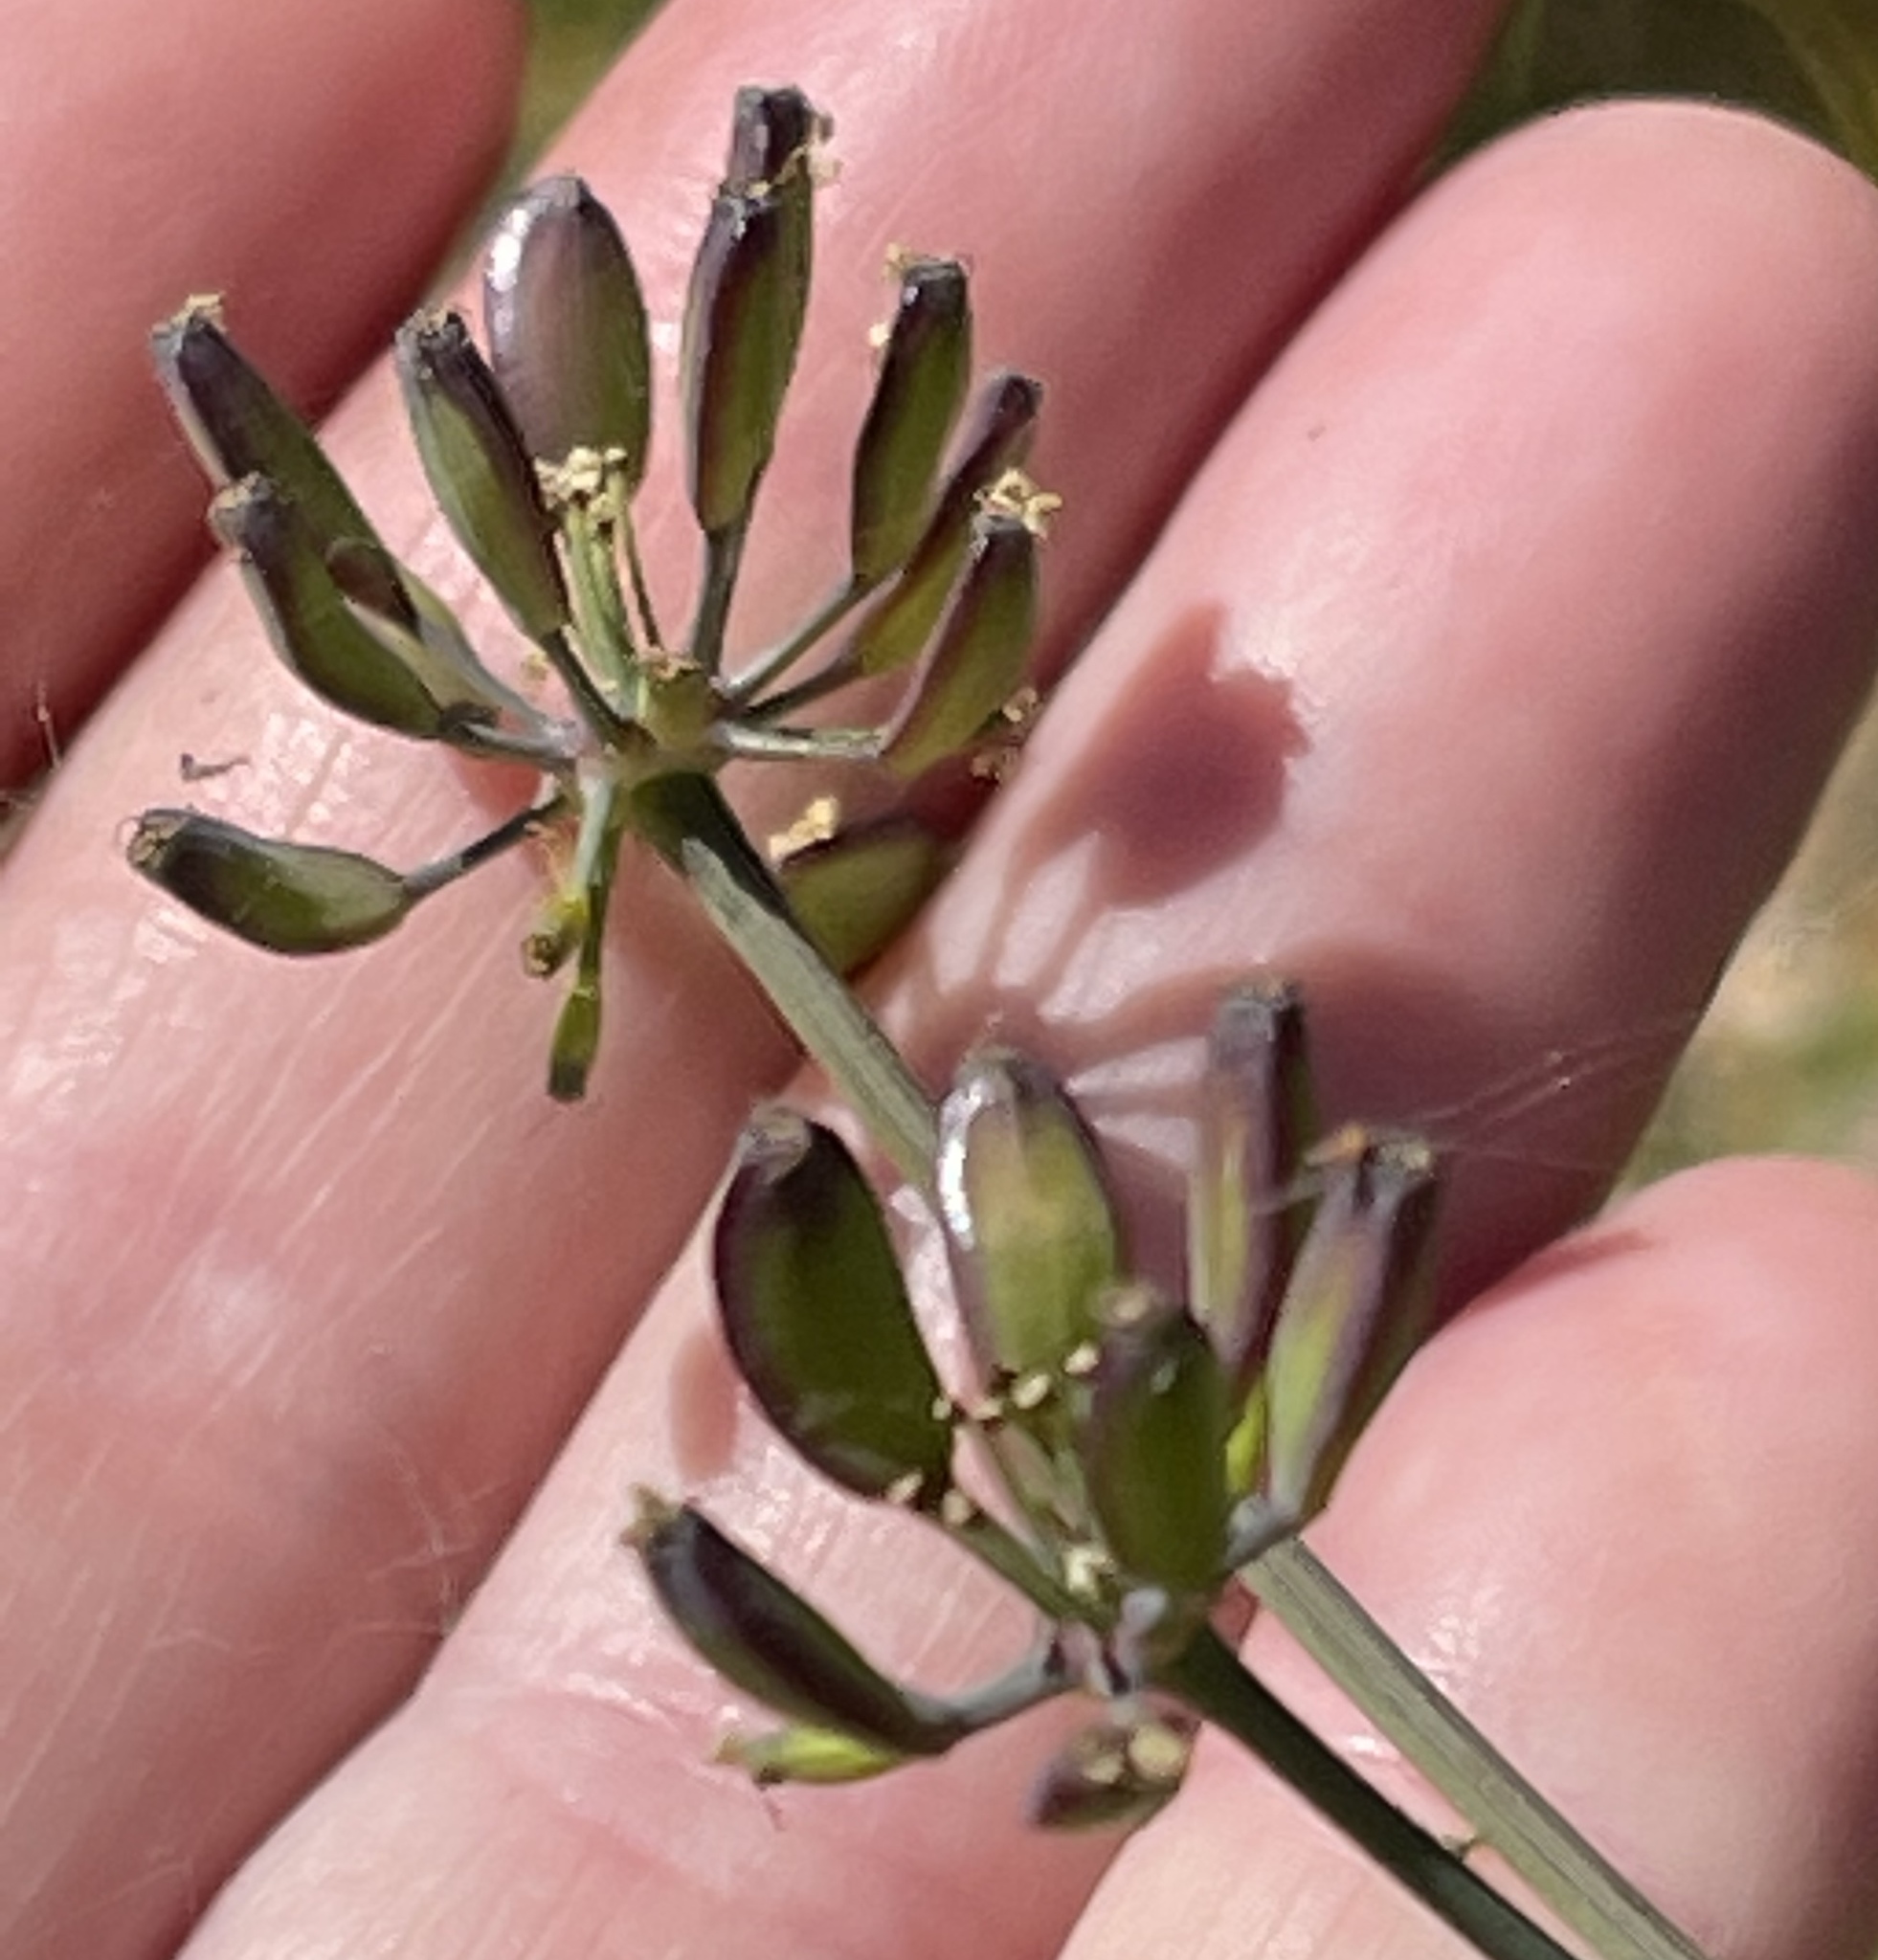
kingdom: Plantae
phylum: Tracheophyta
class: Magnoliopsida
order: Apiales
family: Apiaceae
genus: Lomatium
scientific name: Lomatium californicum
